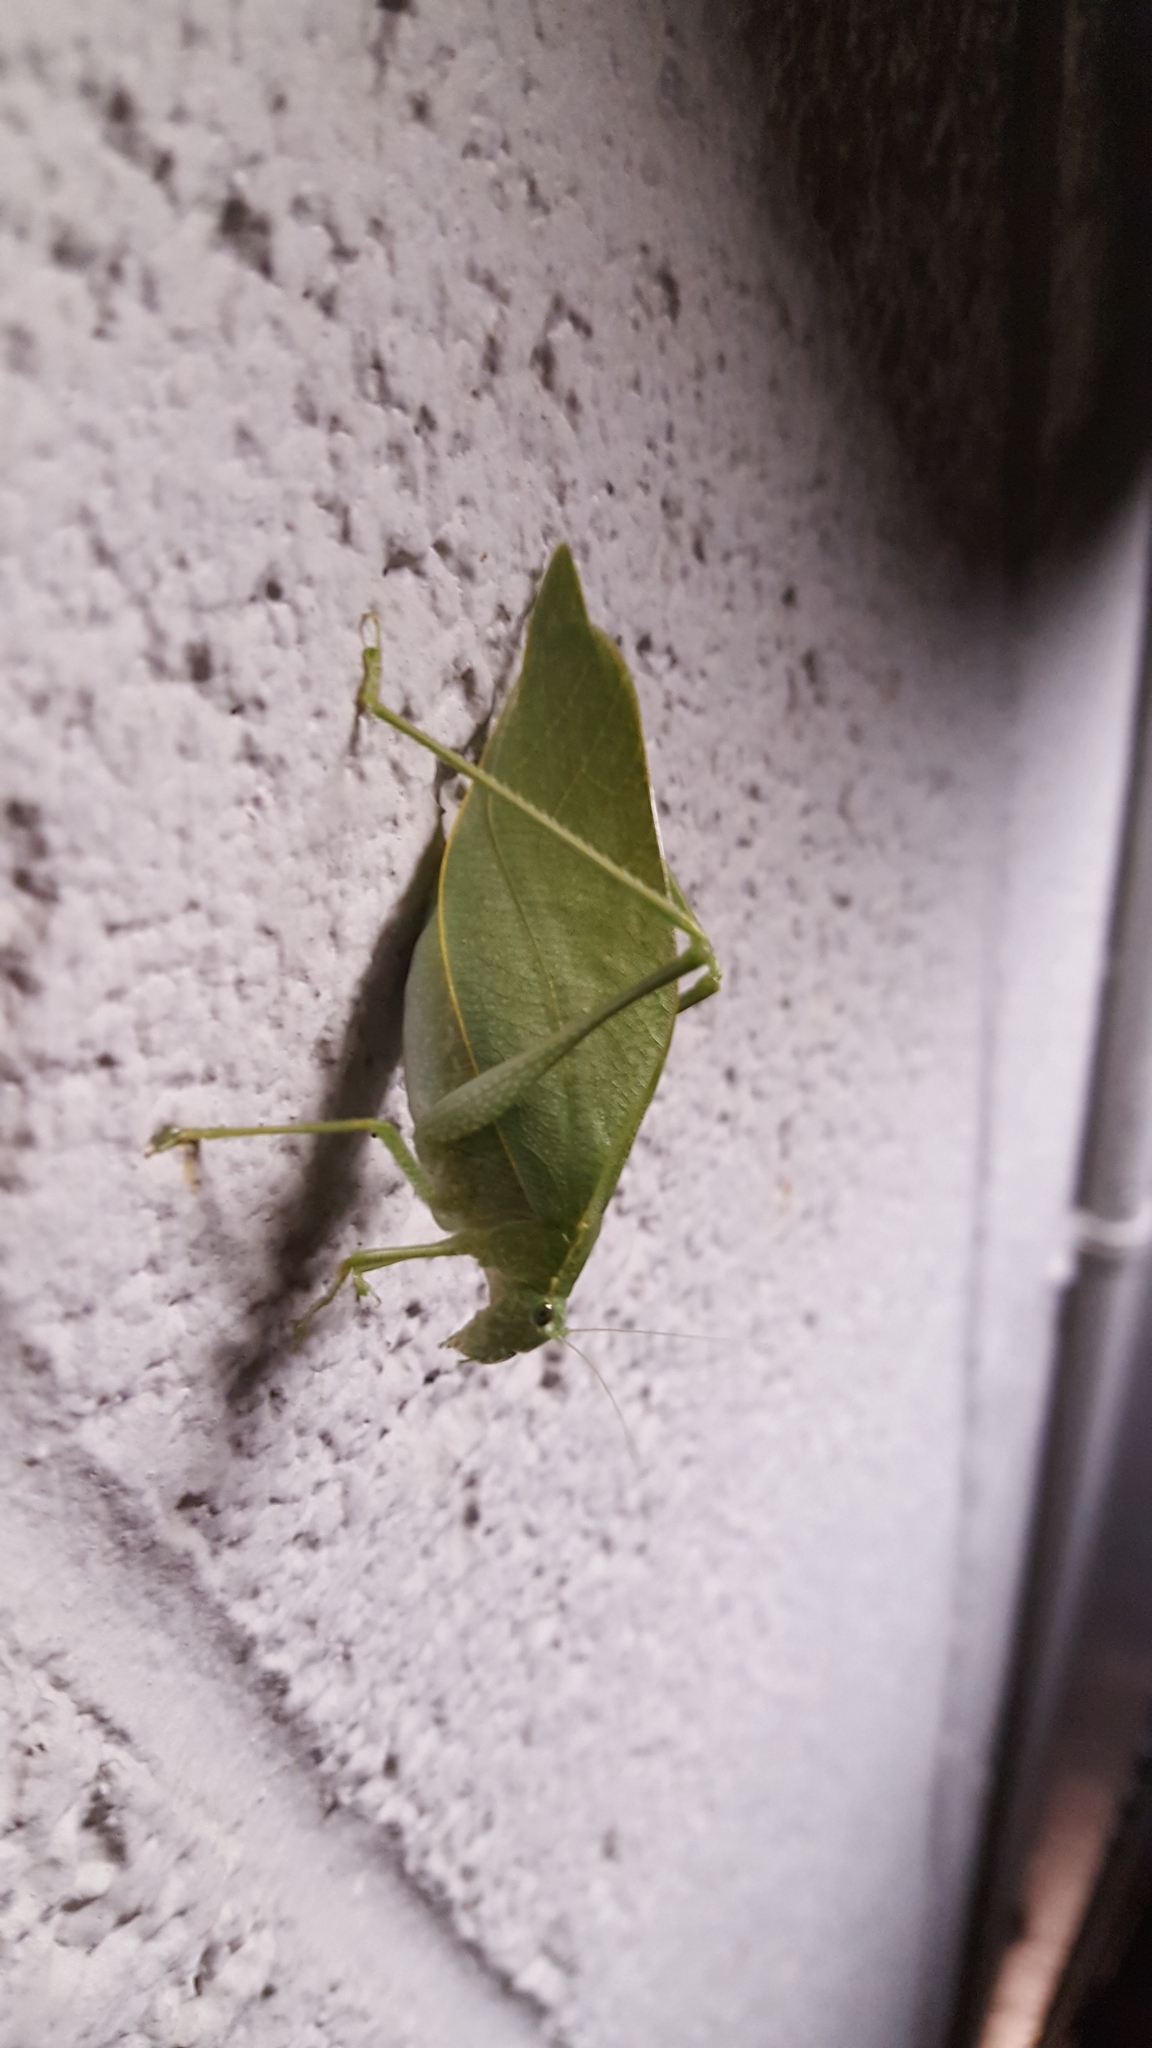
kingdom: Animalia
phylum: Arthropoda
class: Insecta
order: Orthoptera
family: Tettigoniidae
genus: Microcentrum
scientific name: Microcentrum rhombifolium
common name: Broad-winged katydid
